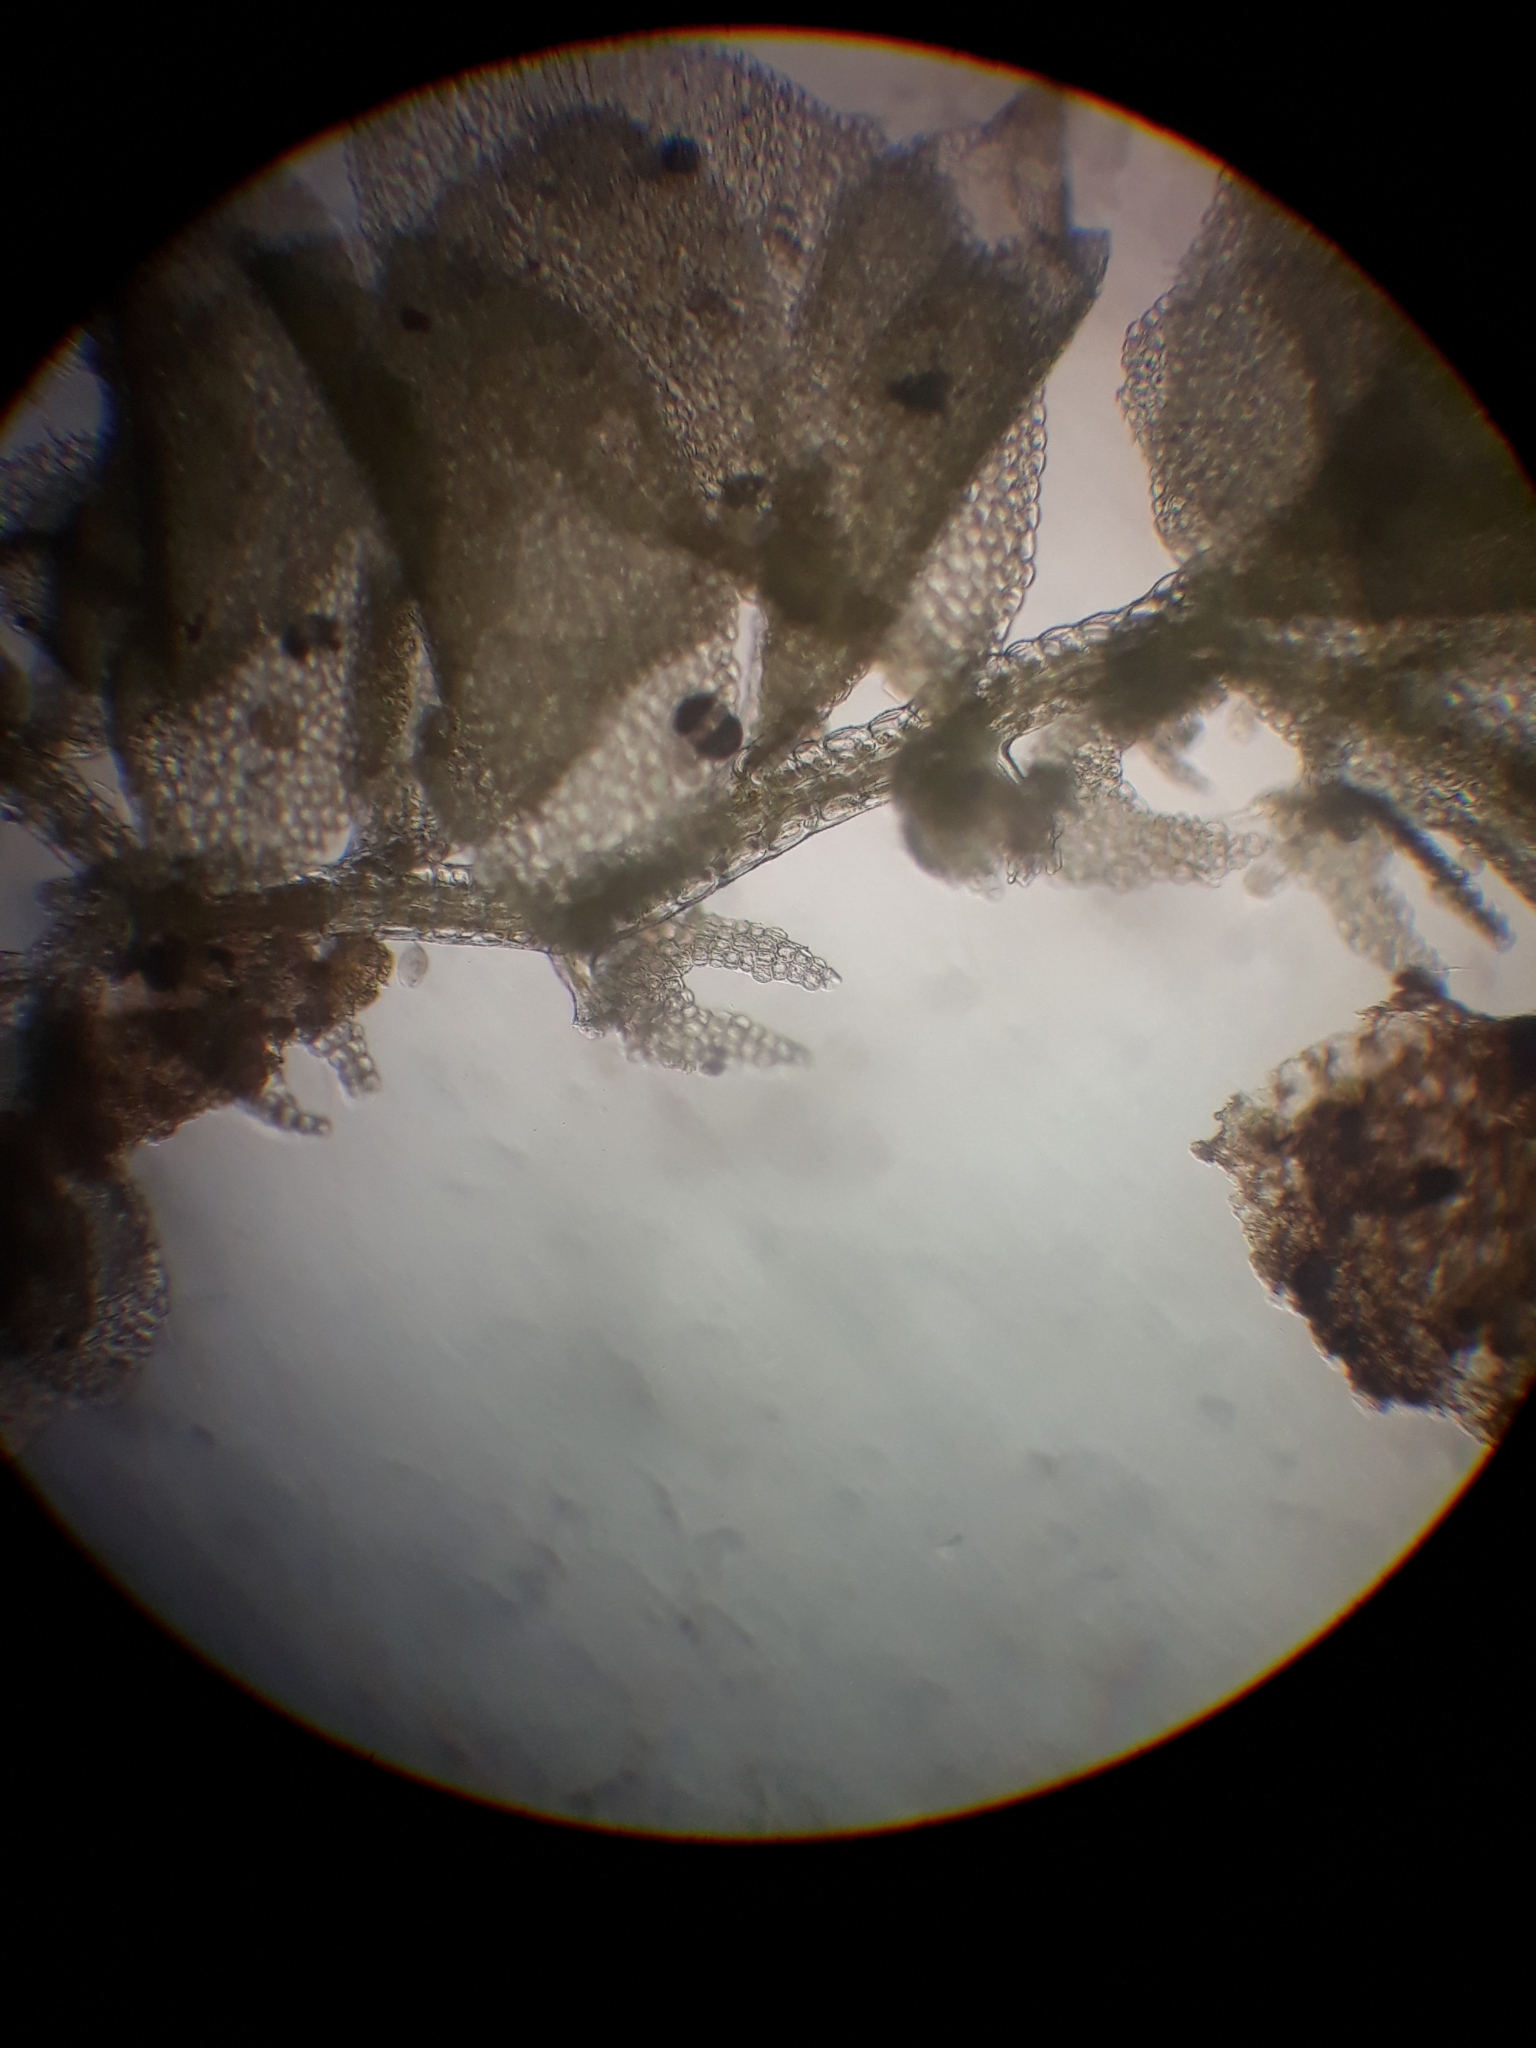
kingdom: Plantae
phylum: Marchantiophyta
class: Jungermanniopsida
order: Porellales
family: Lejeuneaceae
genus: Siphonolejeunea
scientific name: Siphonolejeunea nudipes
